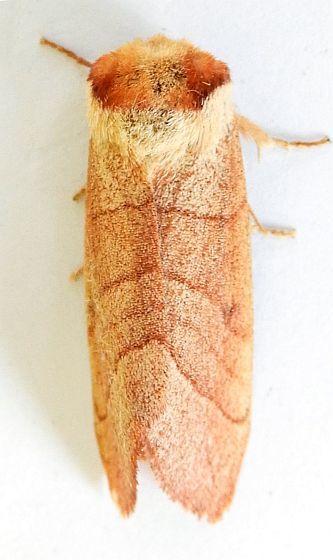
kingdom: Animalia
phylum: Arthropoda
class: Insecta
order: Lepidoptera
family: Notodontidae
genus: Datana
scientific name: Datana perspicua
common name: Spotted datana
